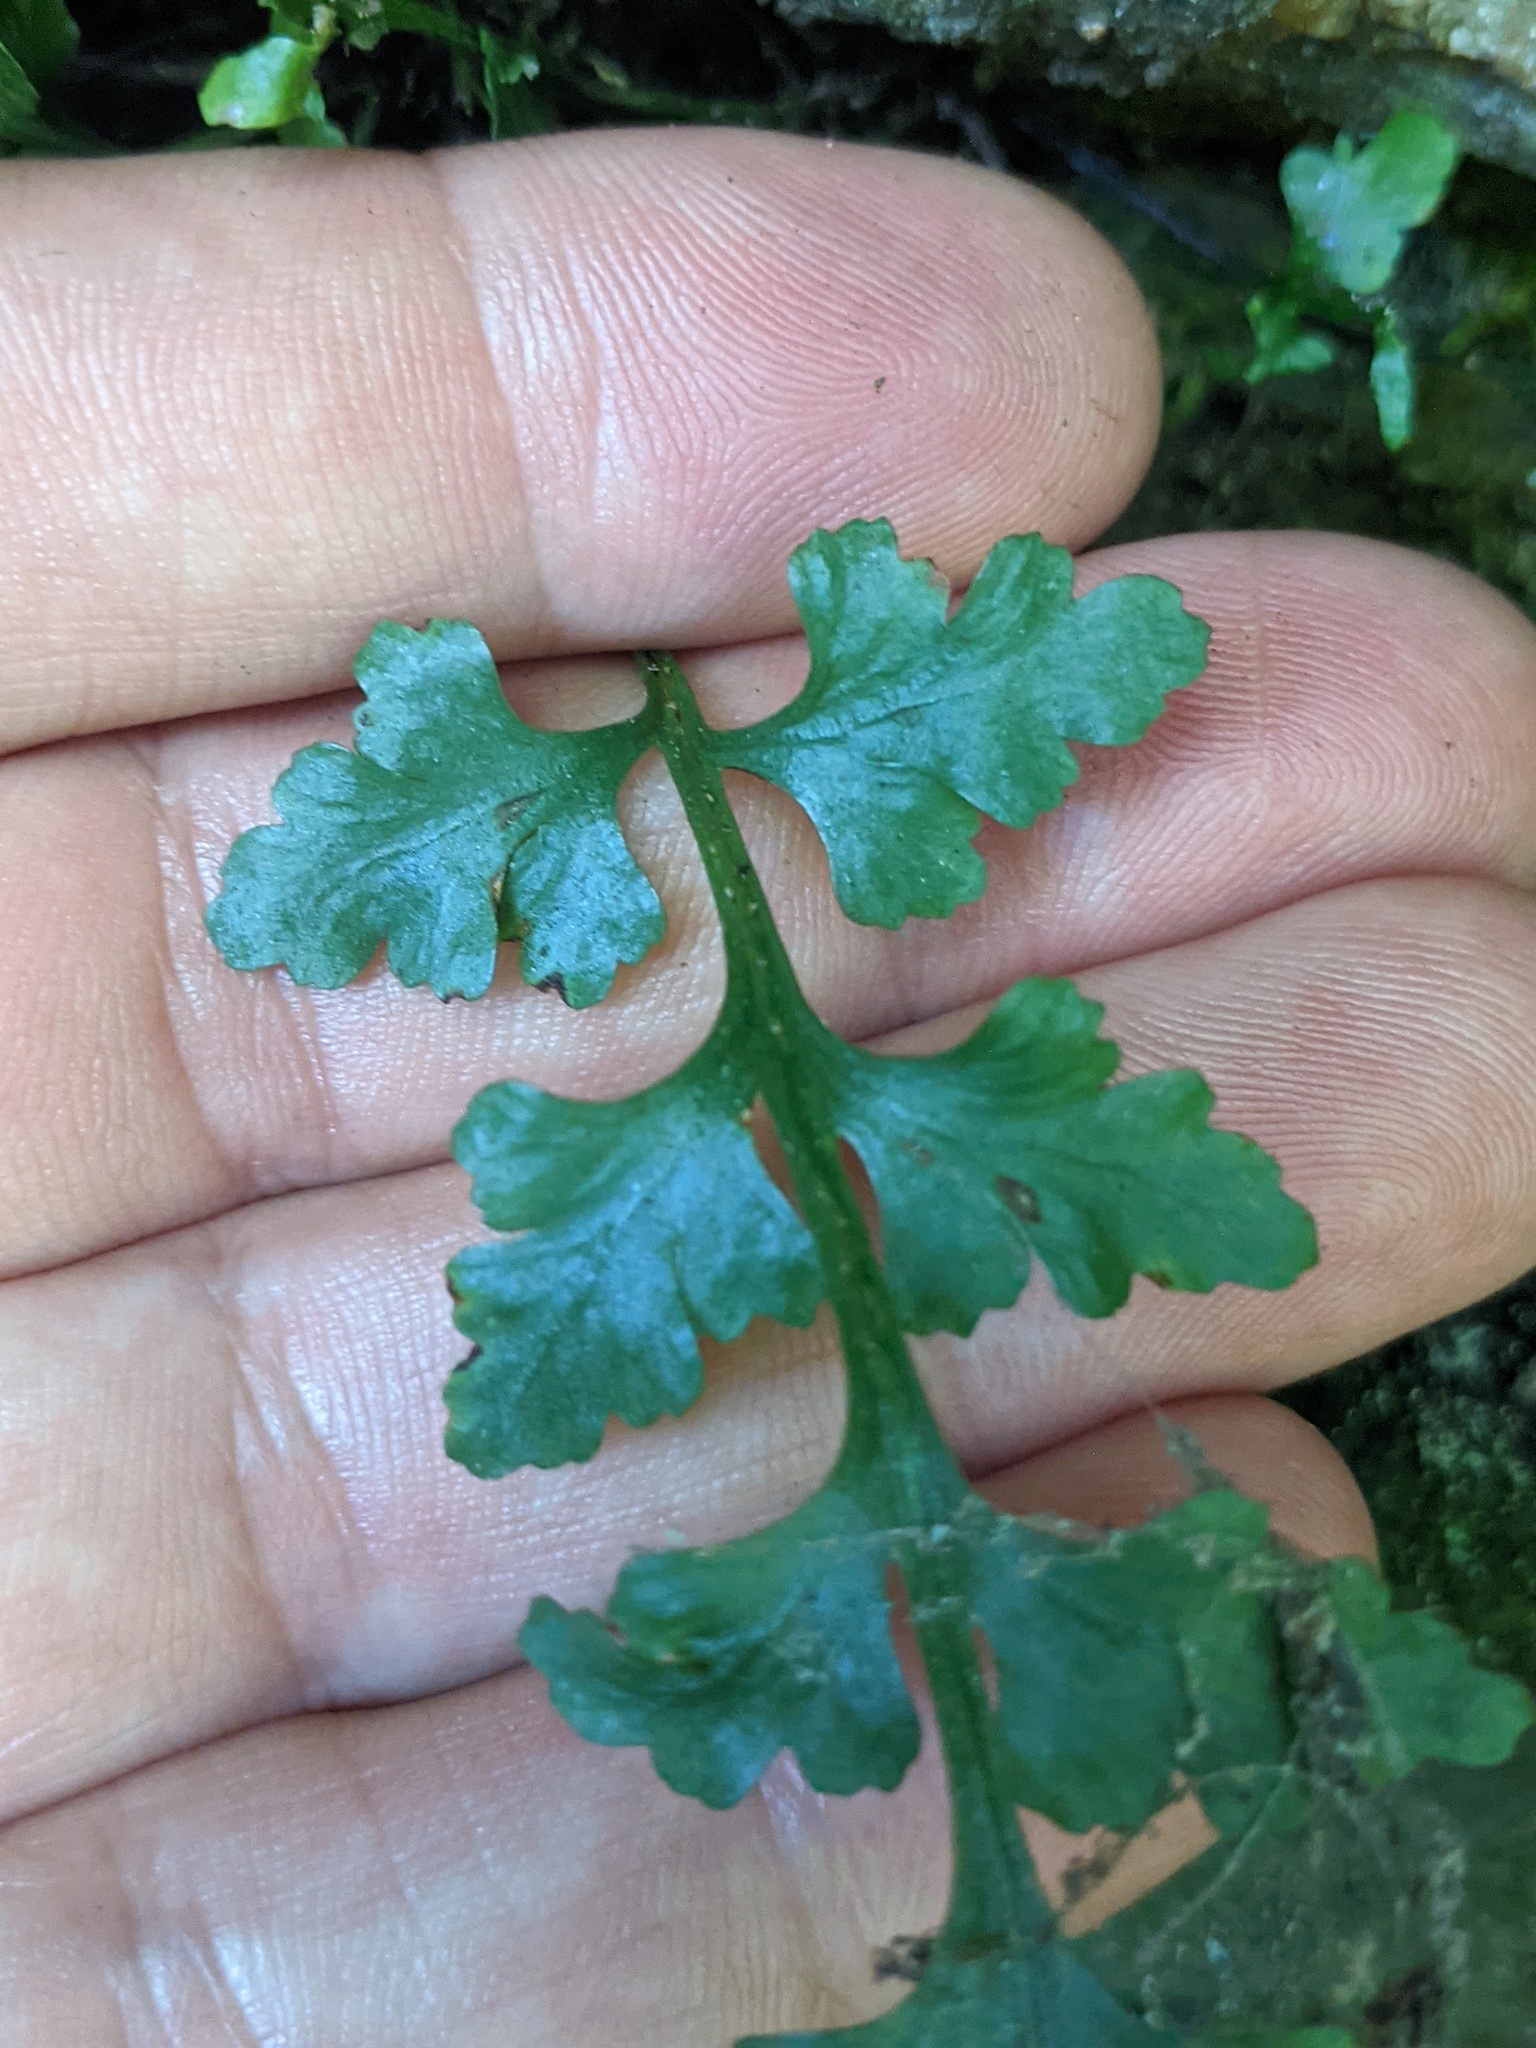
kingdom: Plantae
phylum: Tracheophyta
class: Polypodiopsida
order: Polypodiales
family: Aspleniaceae
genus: Asplenium
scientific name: Asplenium montanum
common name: Mountain spleenwort
